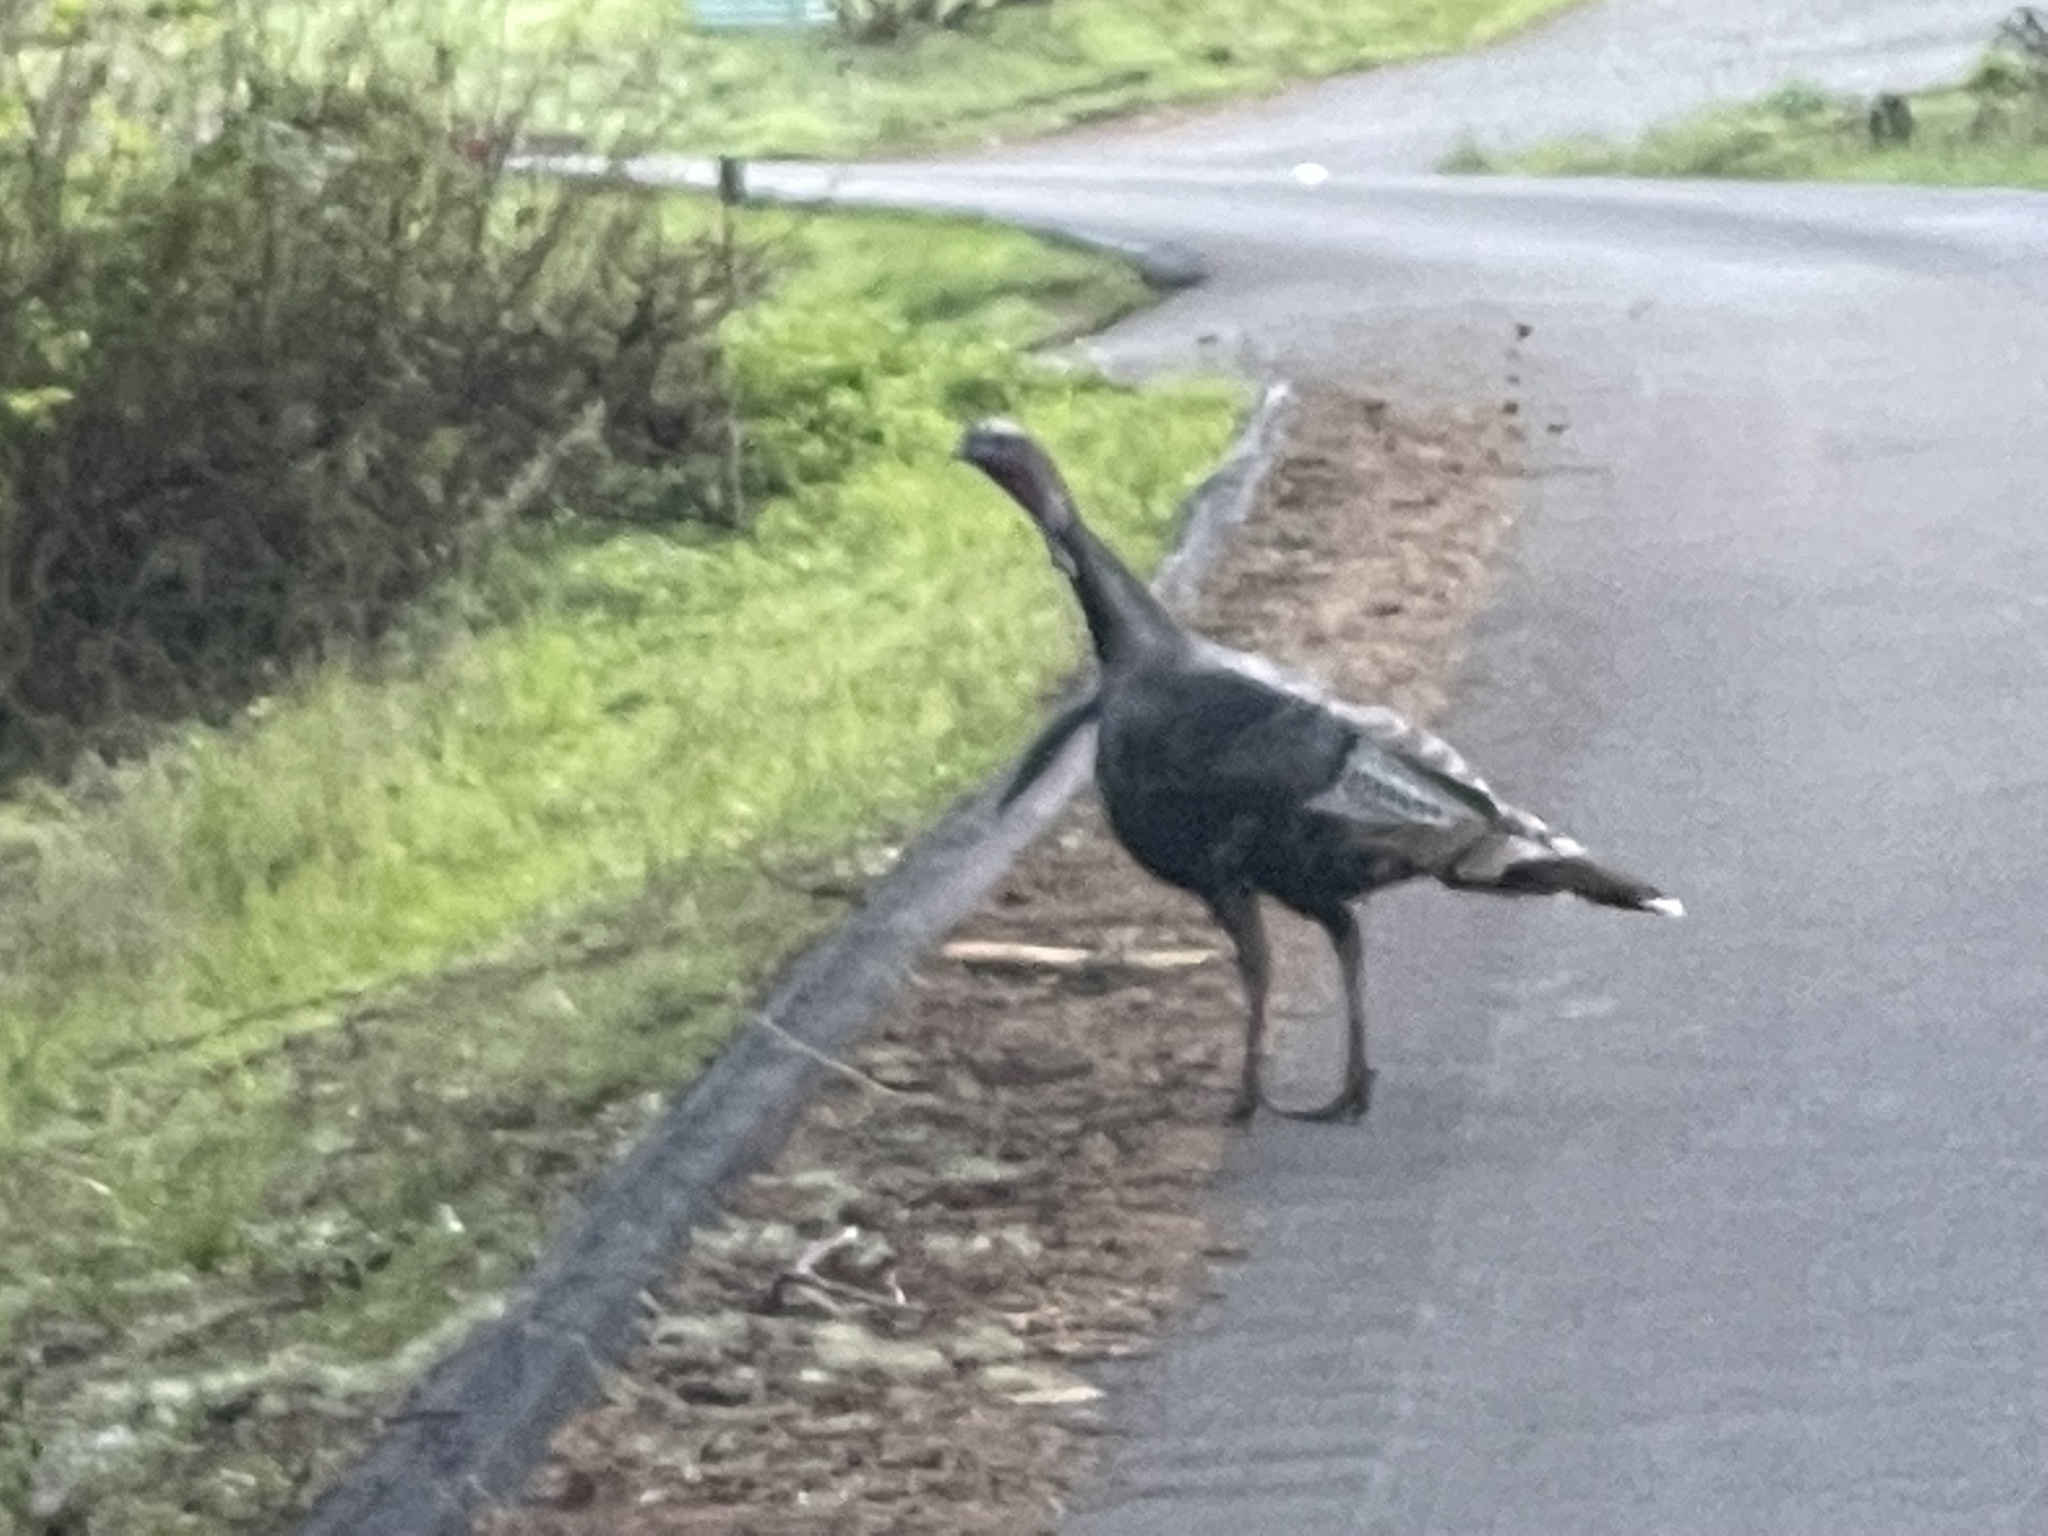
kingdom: Animalia
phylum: Chordata
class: Aves
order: Galliformes
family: Phasianidae
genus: Meleagris
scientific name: Meleagris gallopavo
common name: Wild turkey
